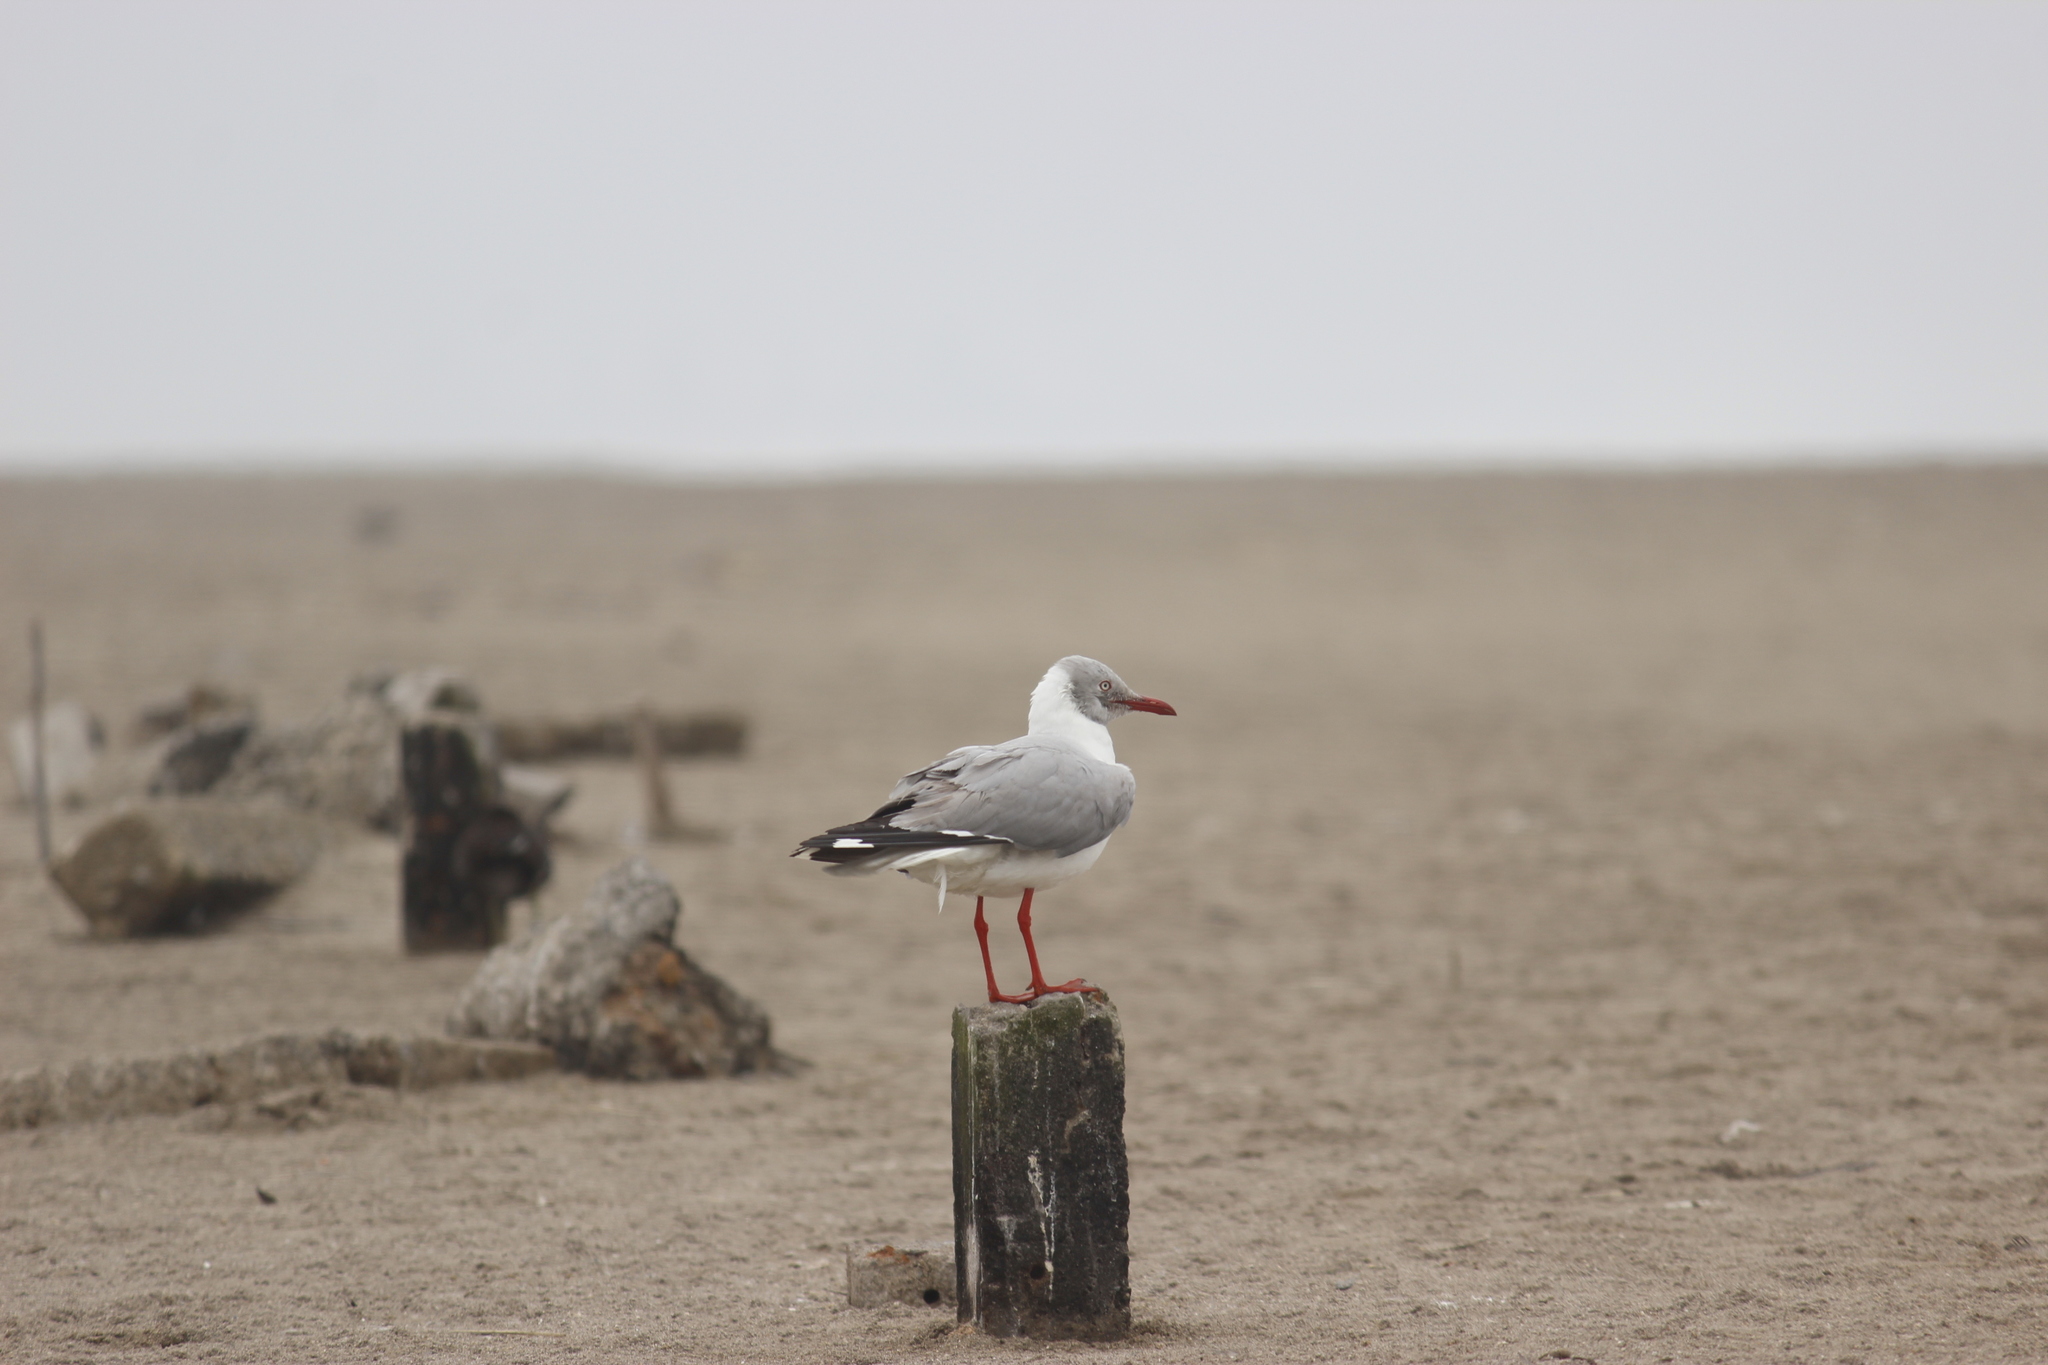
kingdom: Animalia
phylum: Chordata
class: Aves
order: Charadriiformes
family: Laridae
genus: Chroicocephalus
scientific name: Chroicocephalus cirrocephalus
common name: Grey-headed gull
